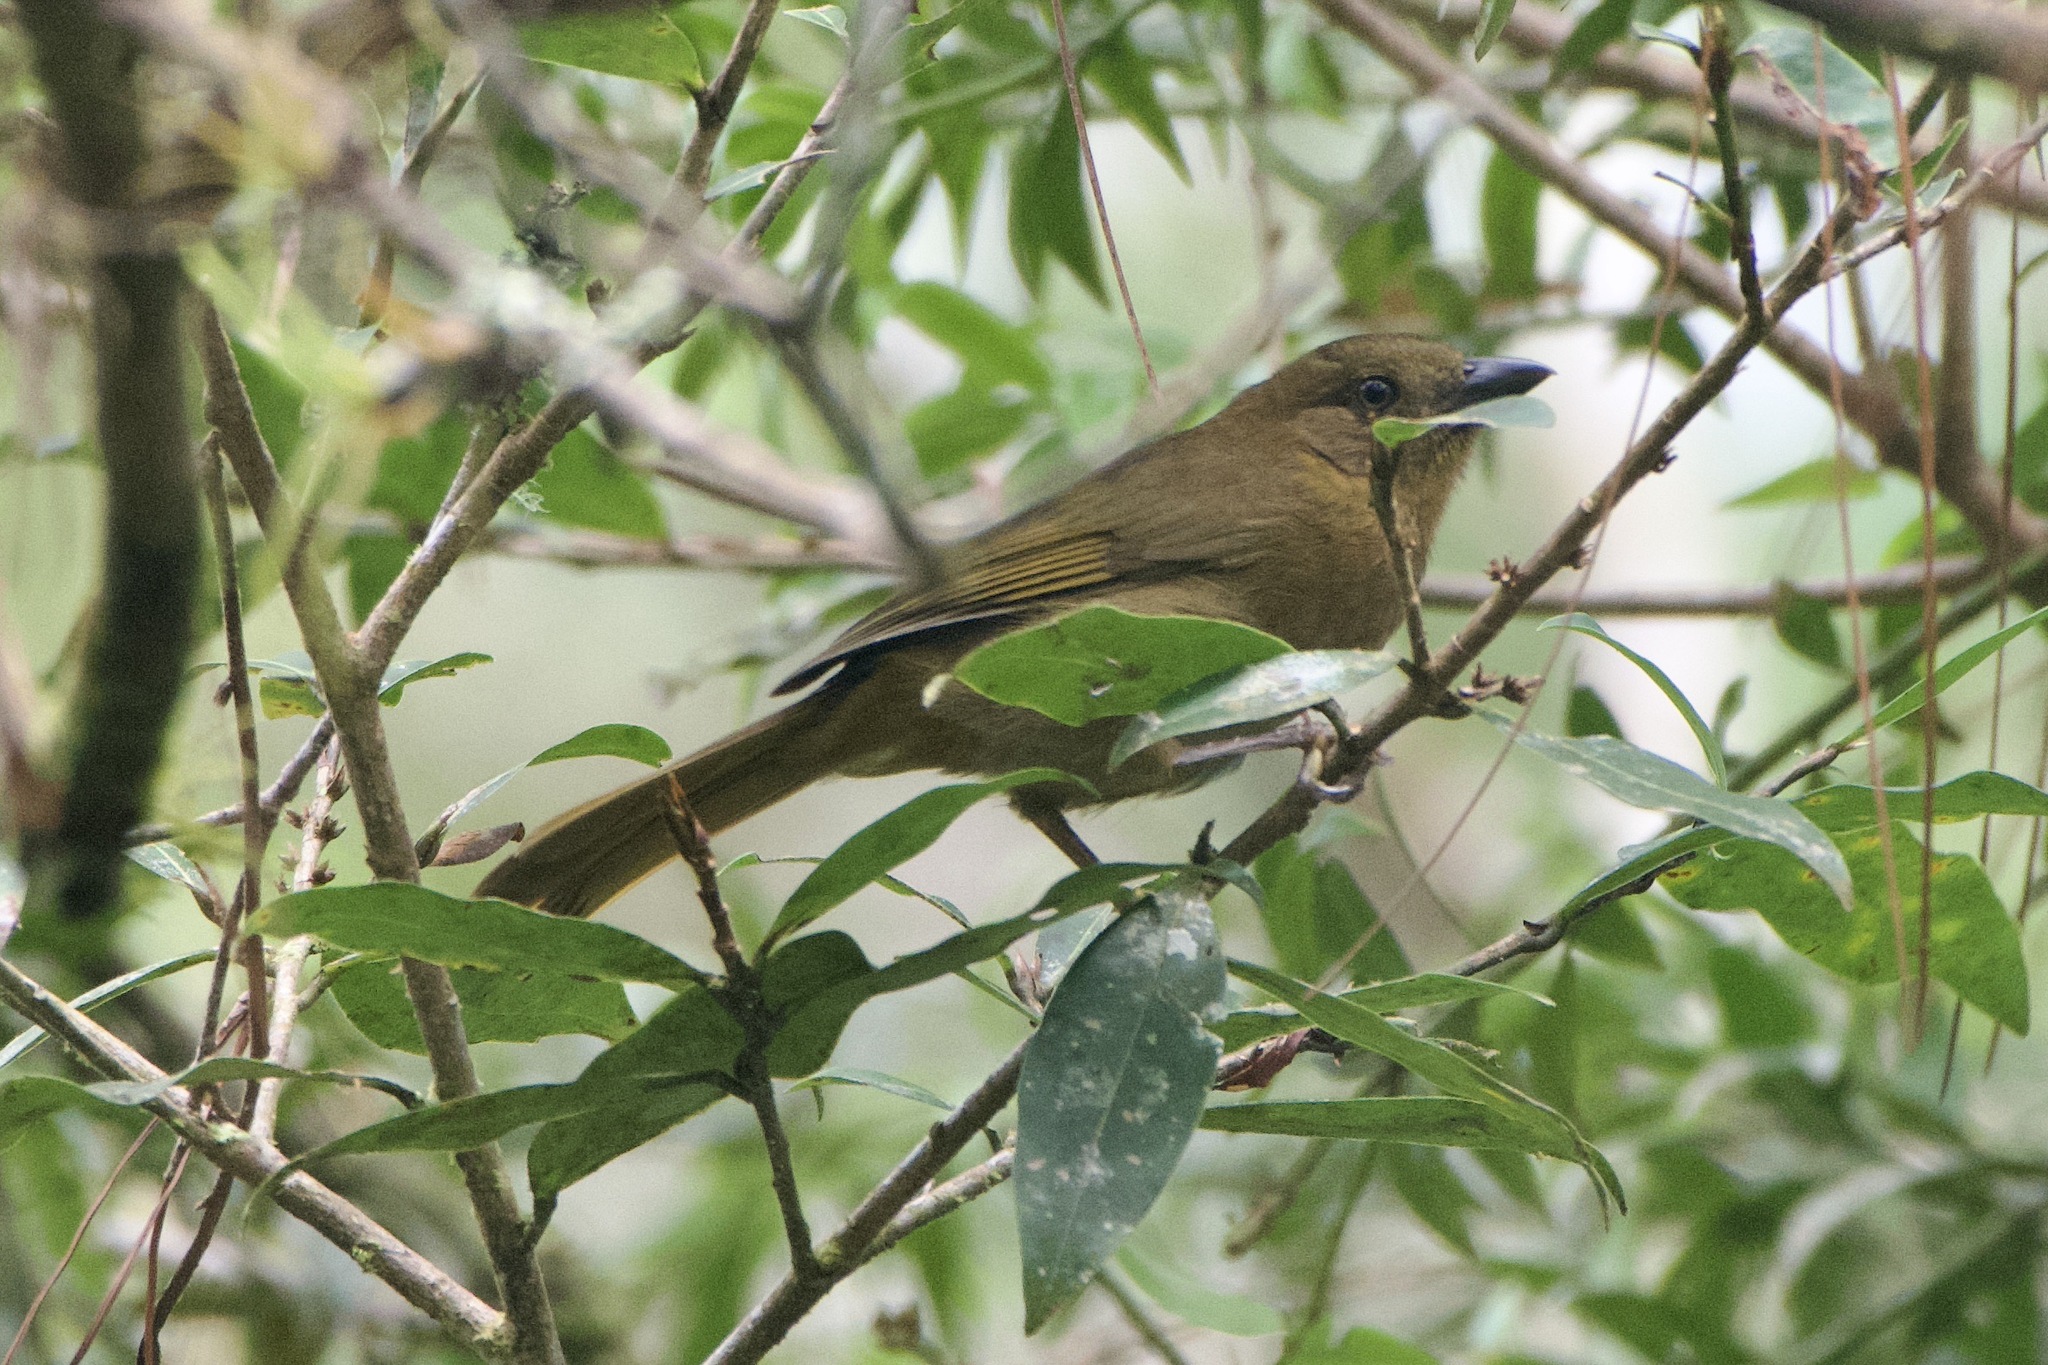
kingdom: Animalia
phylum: Chordata
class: Aves
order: Passeriformes
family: Cardinalidae
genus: Habia
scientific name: Habia rubica
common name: Red-crowned ant-tanager
